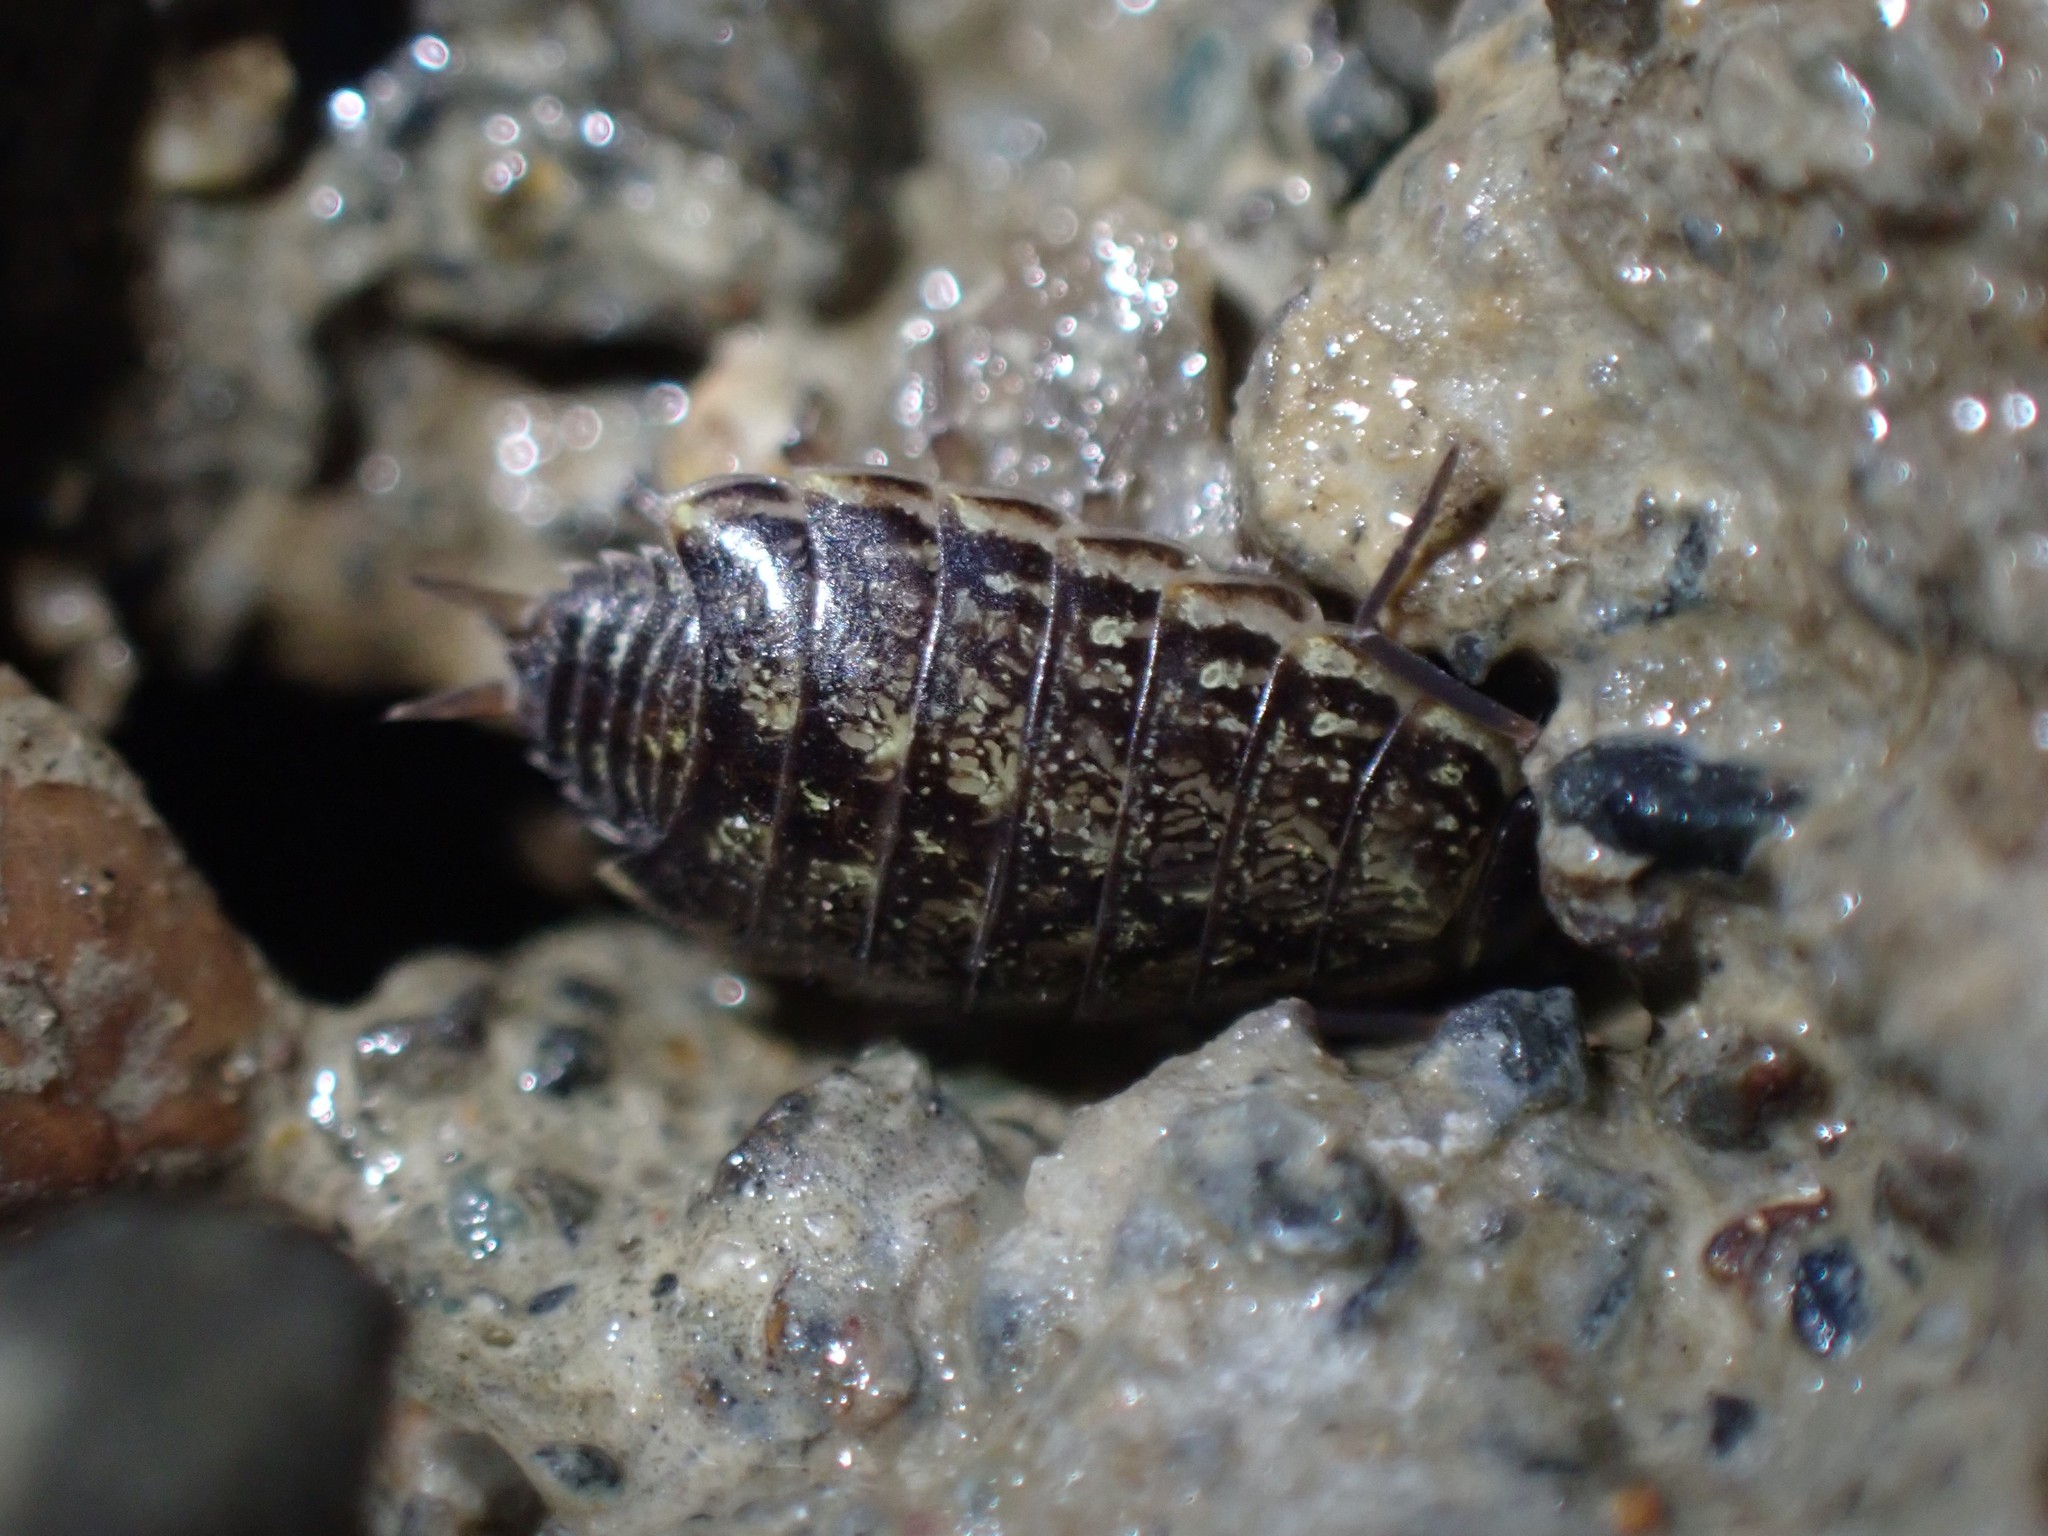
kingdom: Animalia
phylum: Arthropoda
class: Malacostraca
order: Isopoda
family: Philosciidae
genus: Philoscia
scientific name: Philoscia muscorum
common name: Common striped woodlouse
